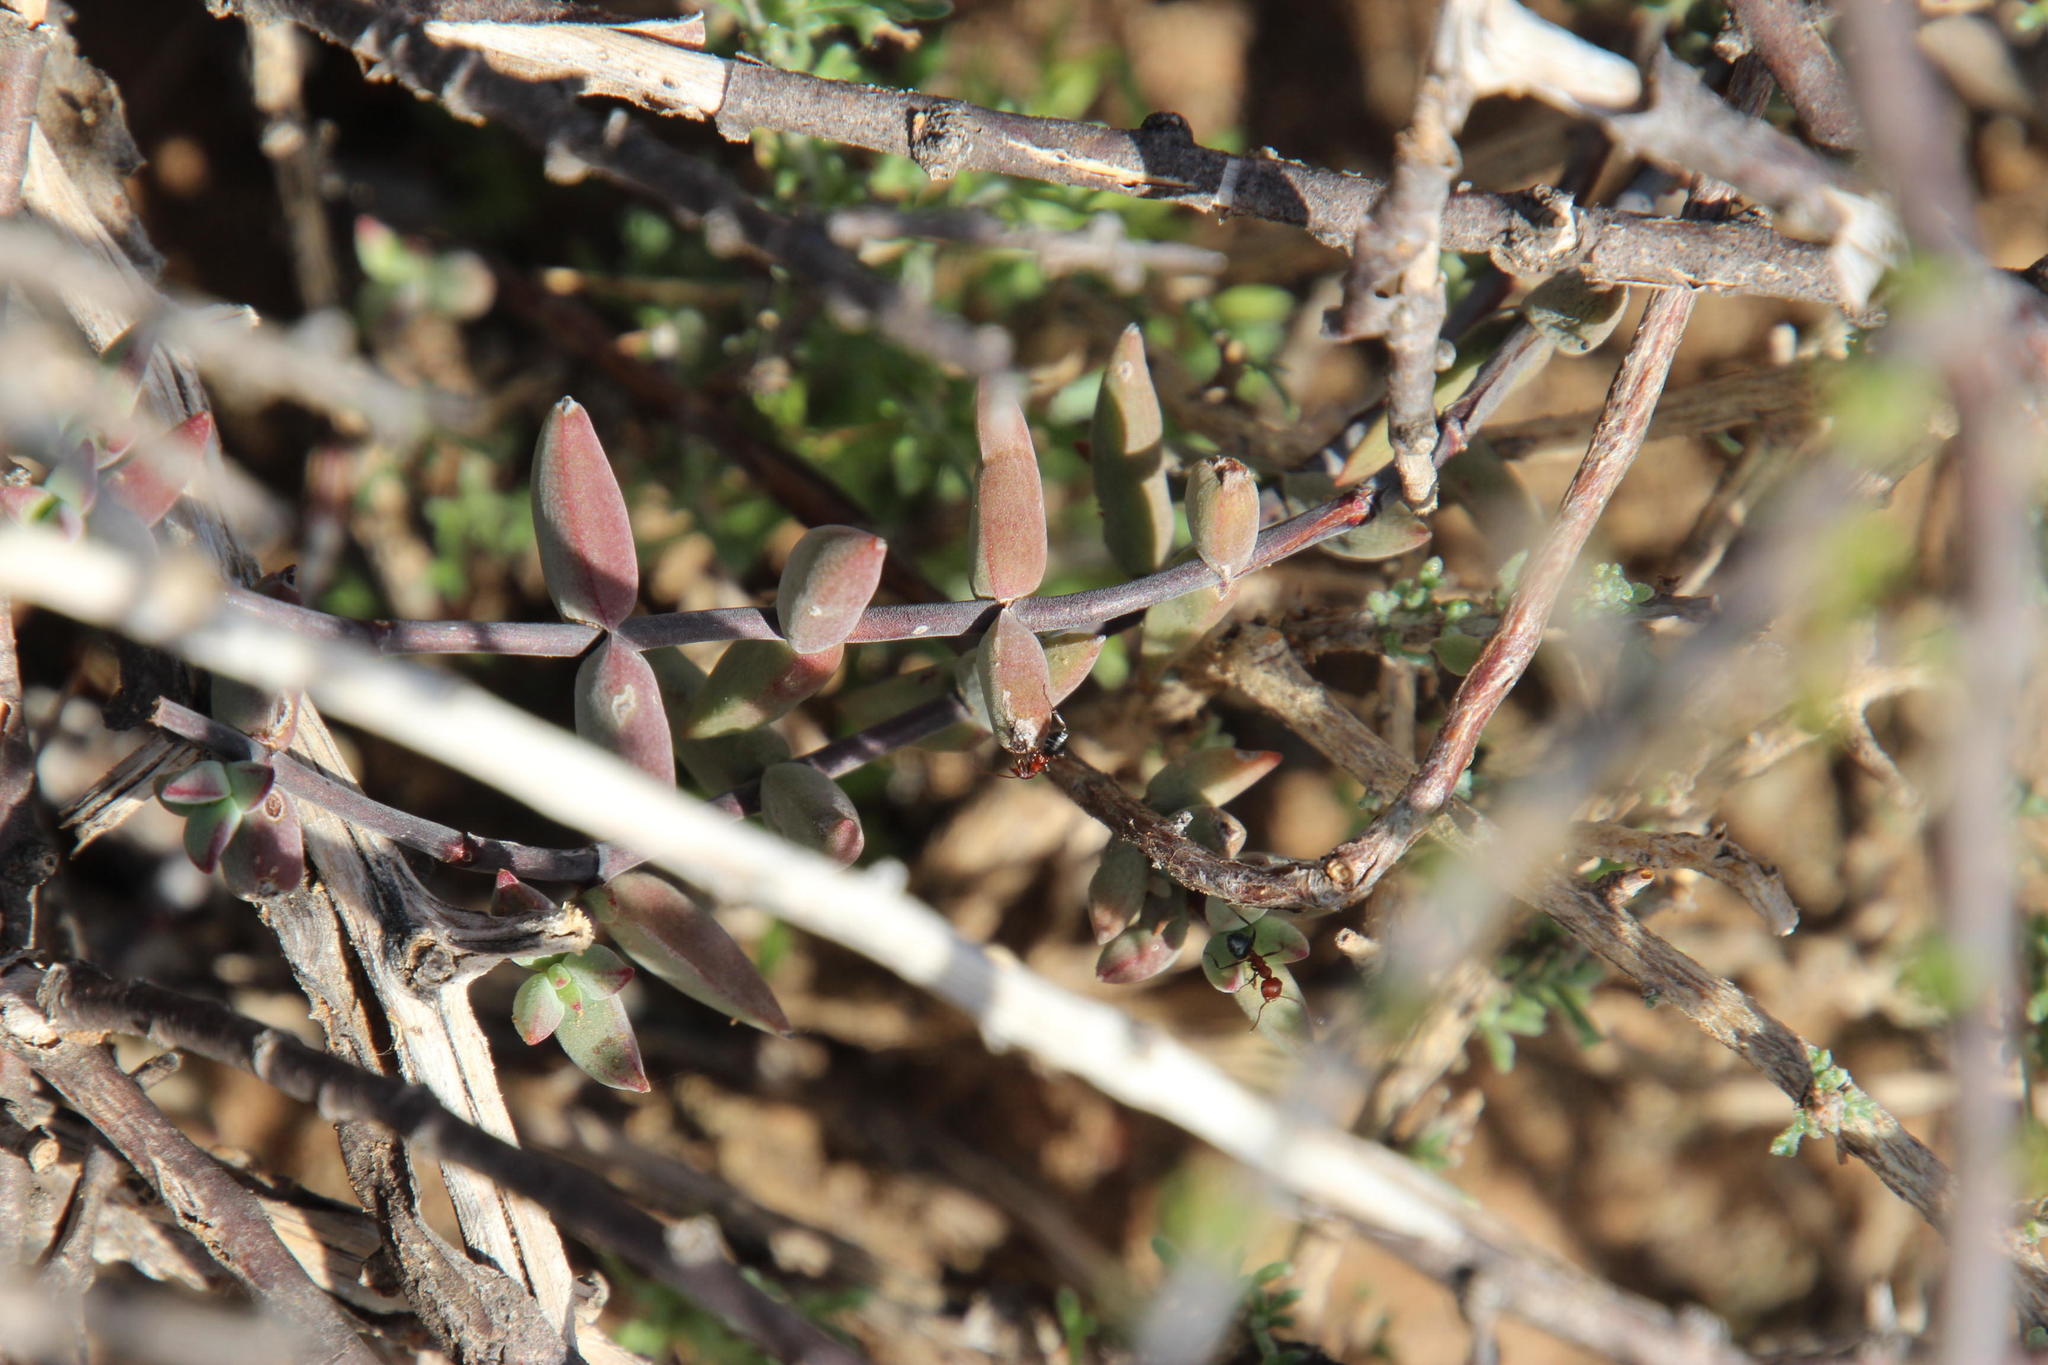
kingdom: Plantae
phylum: Tracheophyta
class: Magnoliopsida
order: Saxifragales
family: Crassulaceae
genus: Crassula
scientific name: Crassula subaphylla
